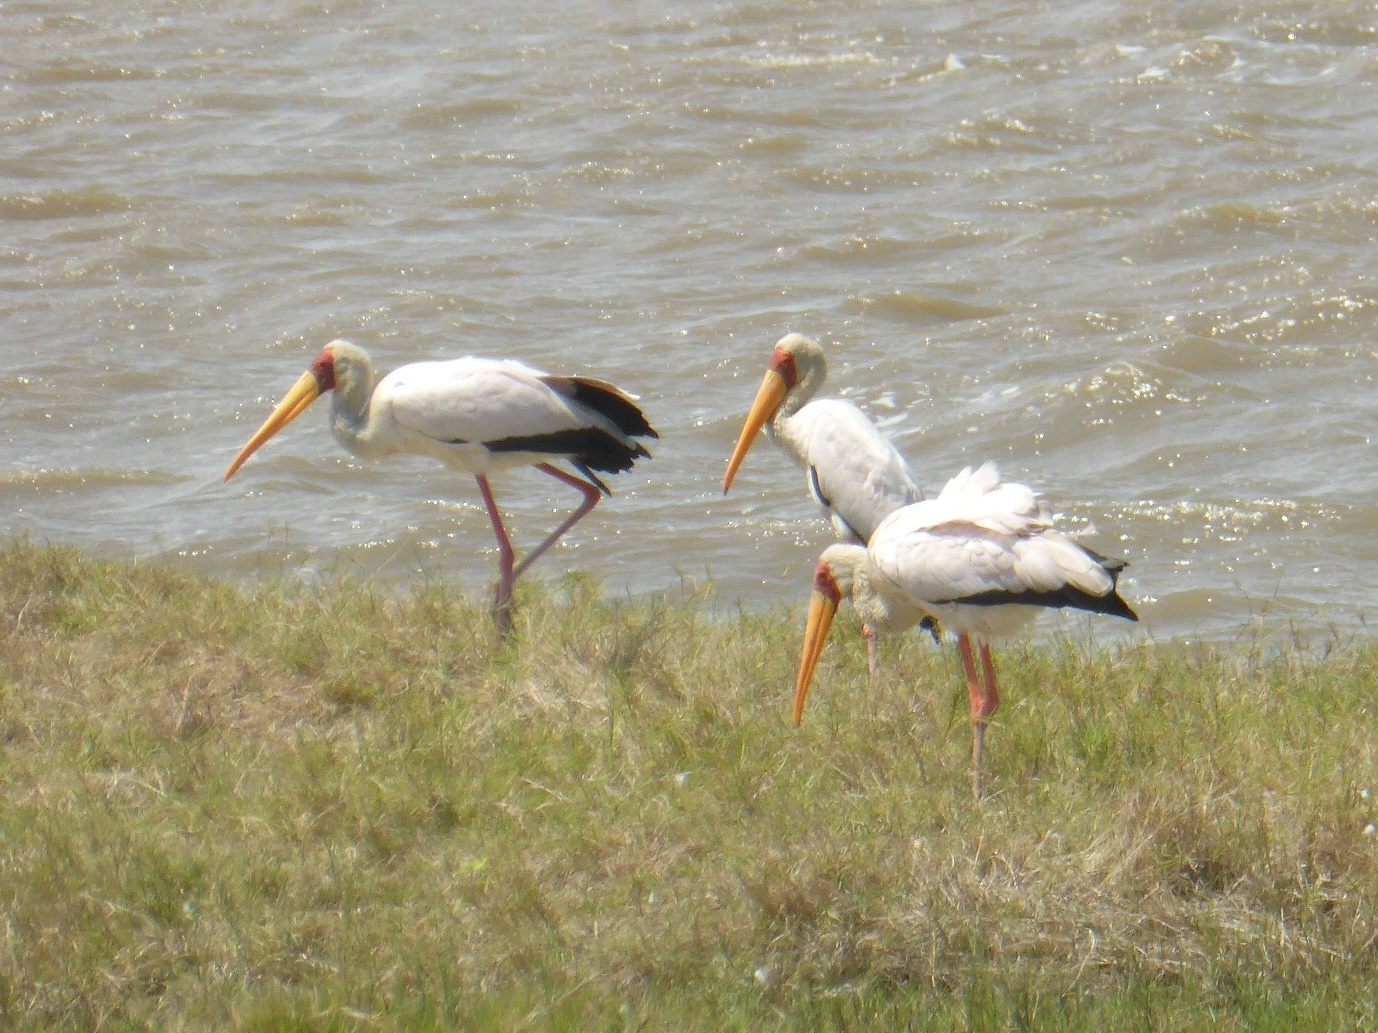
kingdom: Animalia
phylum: Chordata
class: Aves
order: Ciconiiformes
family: Ciconiidae
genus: Mycteria
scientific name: Mycteria ibis
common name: Yellow-billed stork
